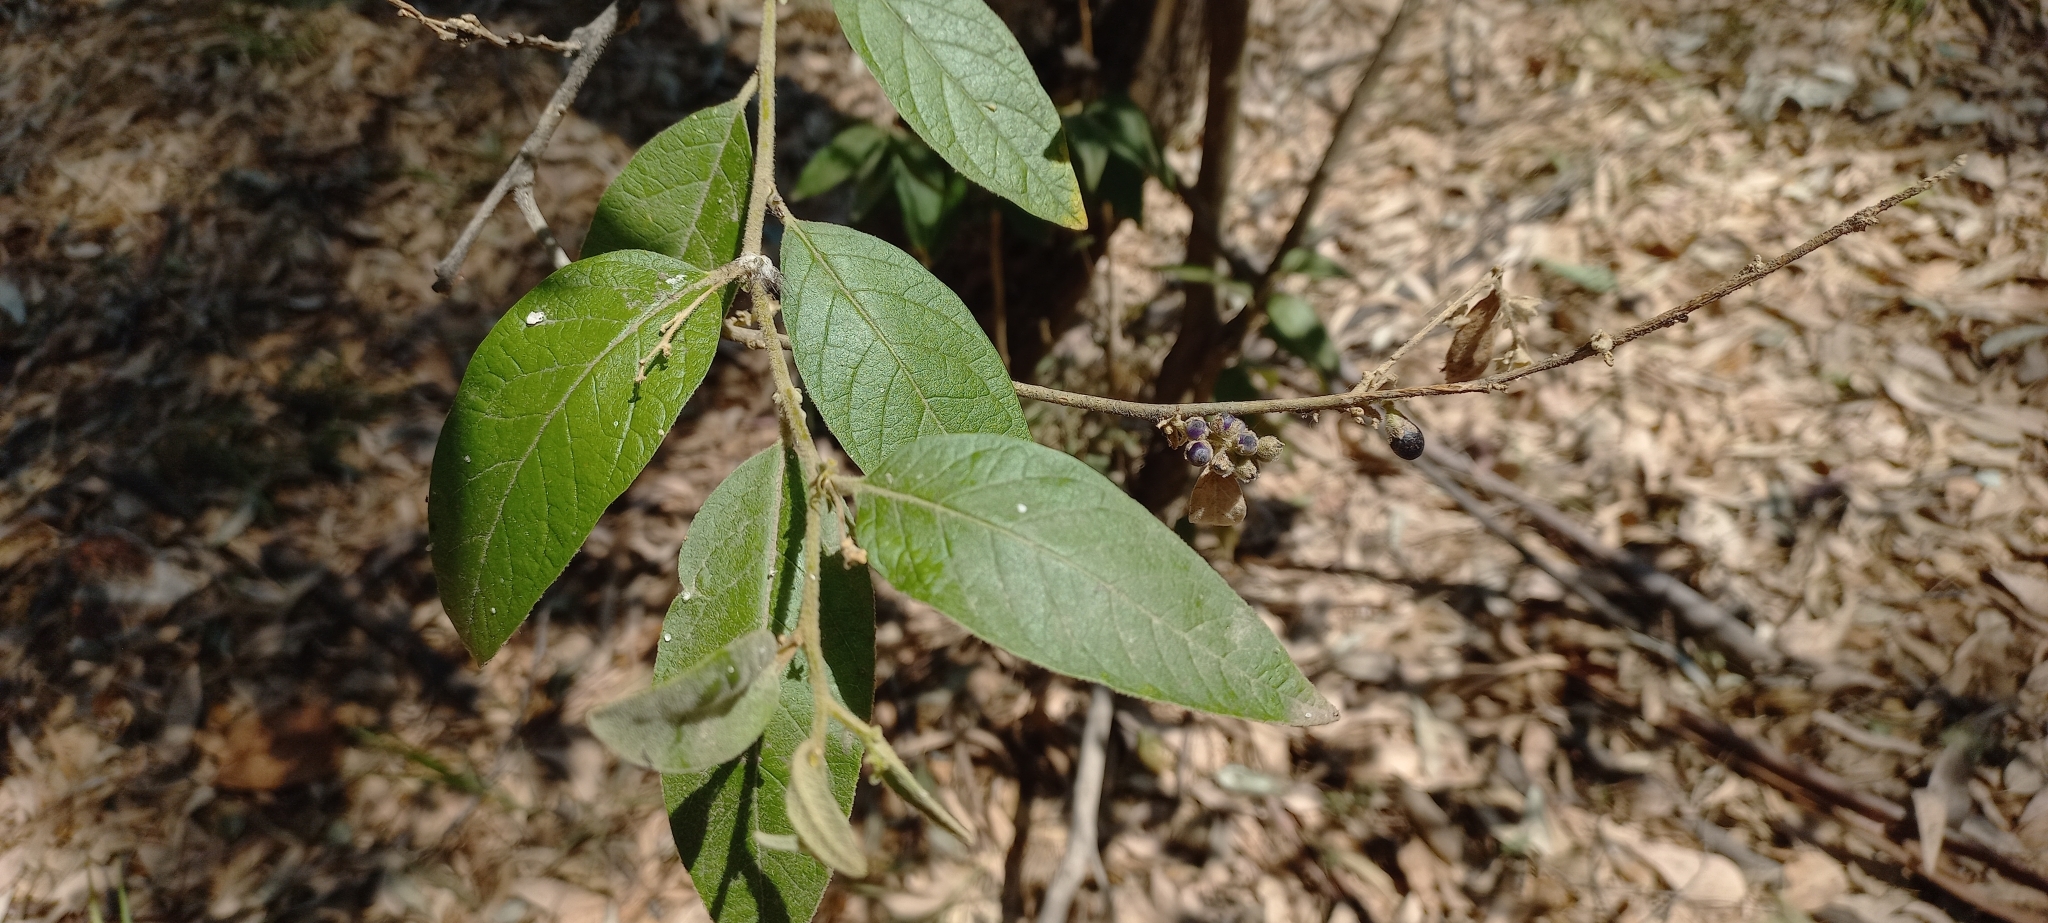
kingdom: Plantae
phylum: Tracheophyta
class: Magnoliopsida
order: Solanales
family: Solanaceae
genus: Cestrum
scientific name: Cestrum tomentosum
